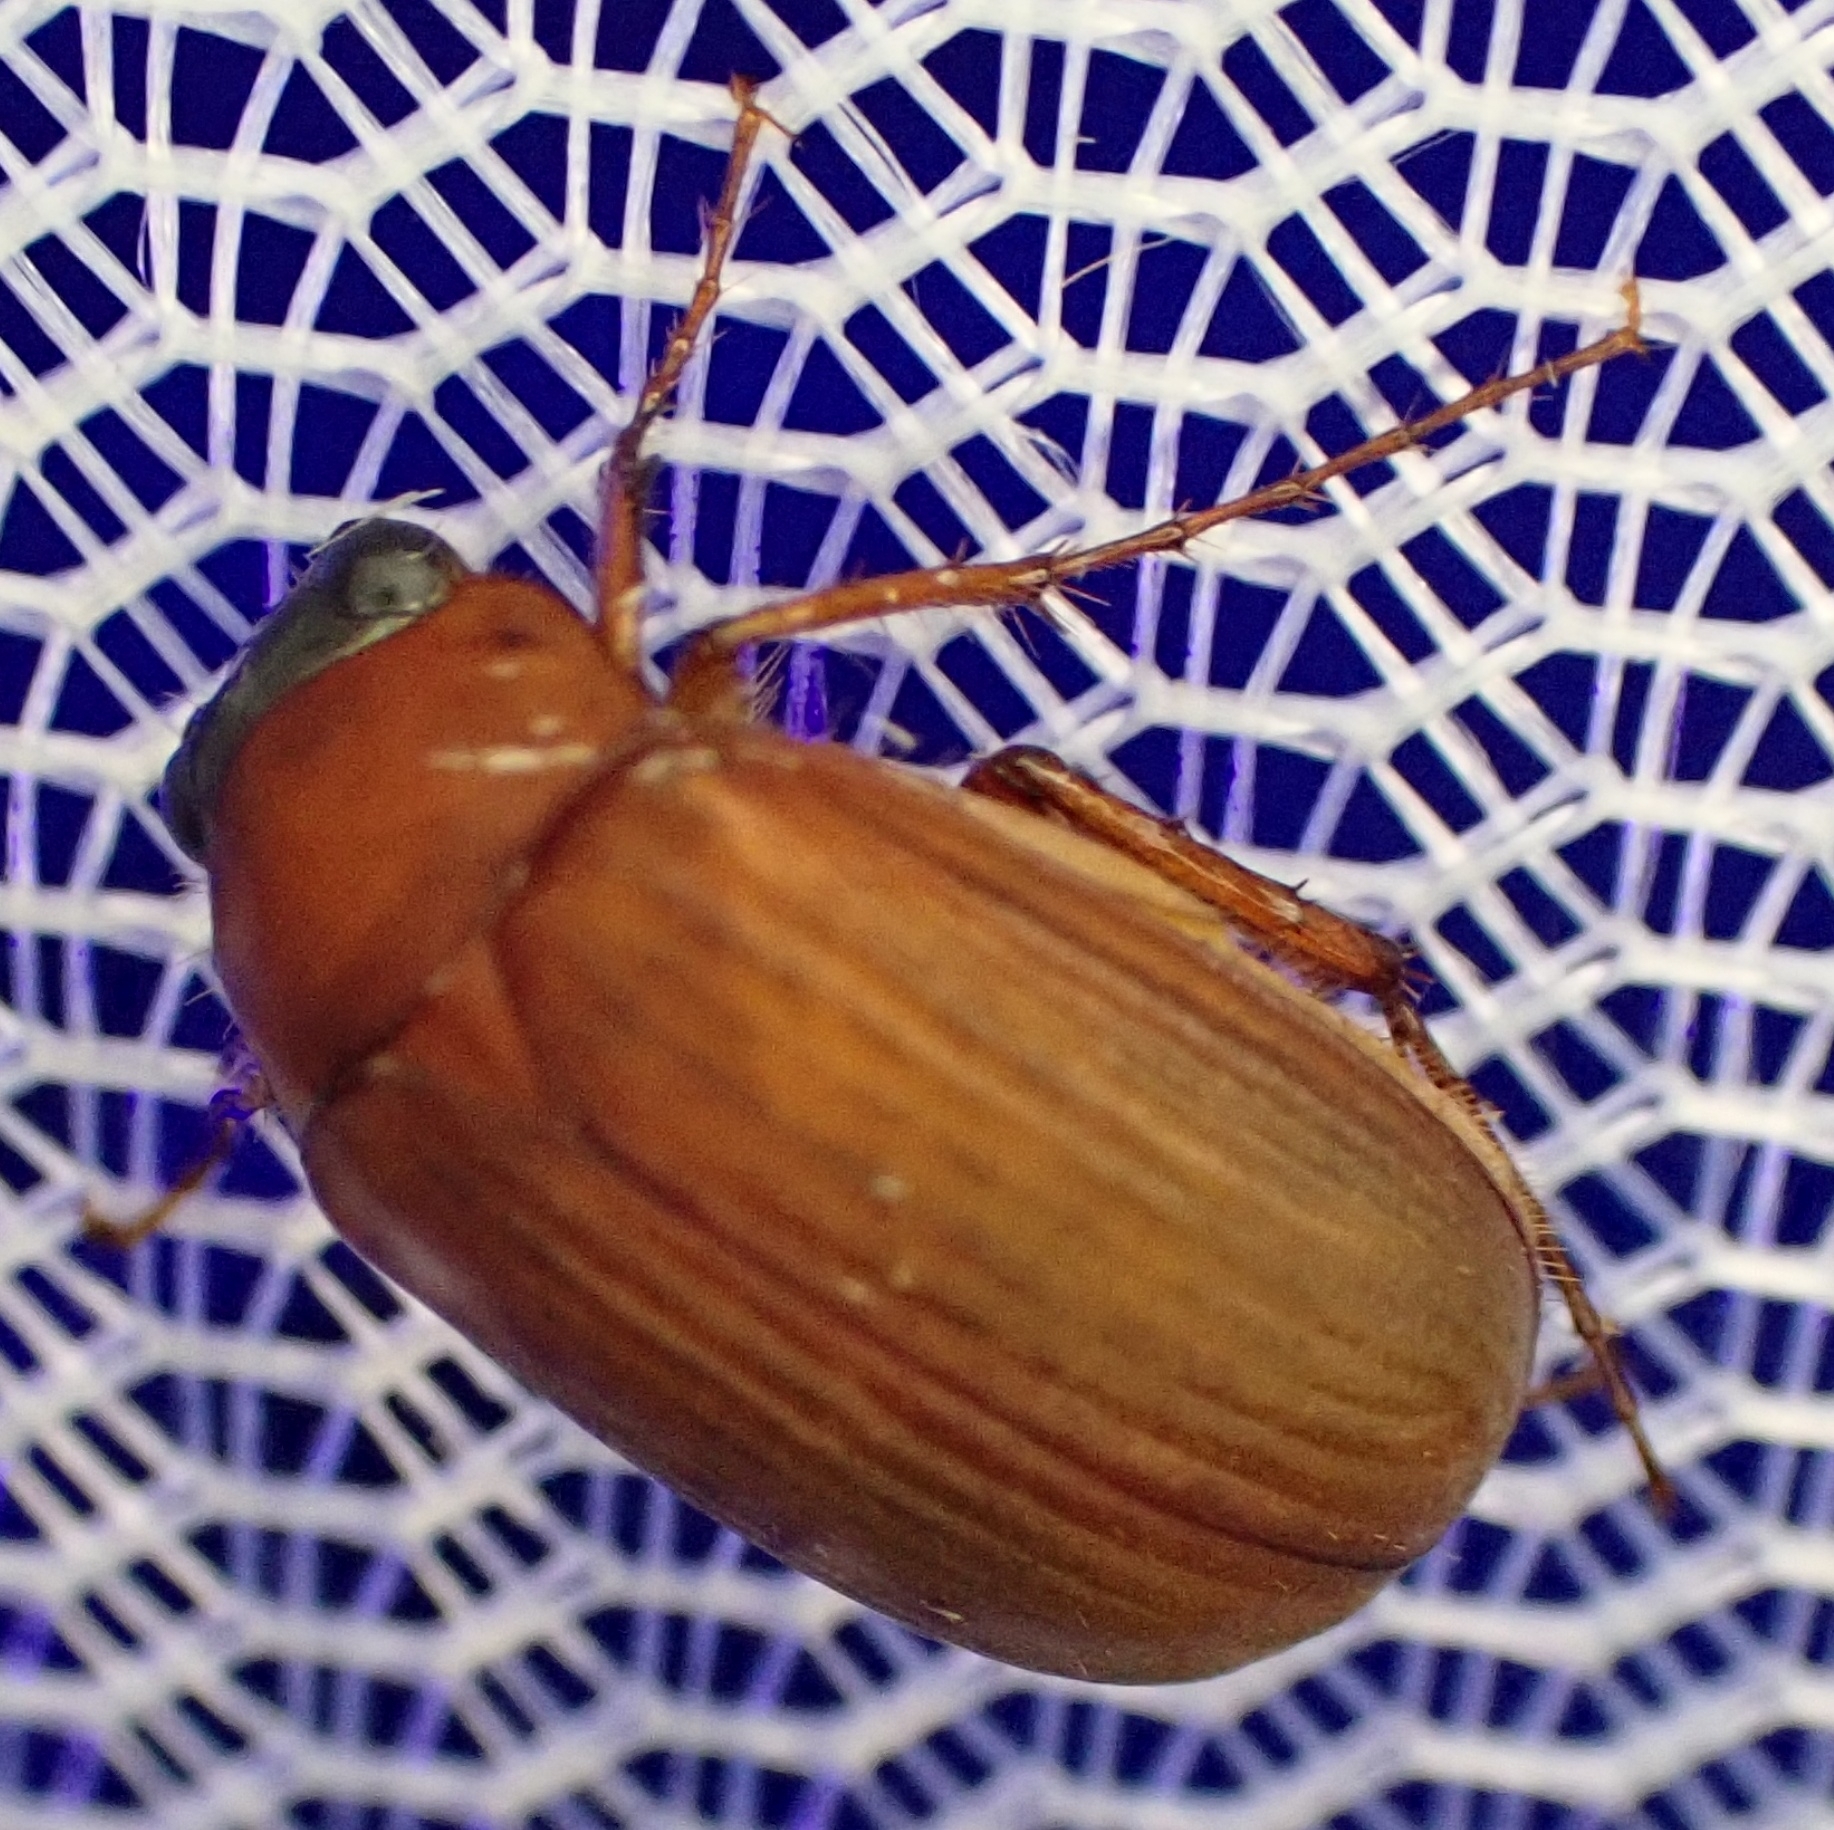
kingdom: Animalia
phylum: Arthropoda
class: Insecta
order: Coleoptera
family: Scarabaeidae
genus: Serica
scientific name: Serica brunnea
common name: Brown chafer
